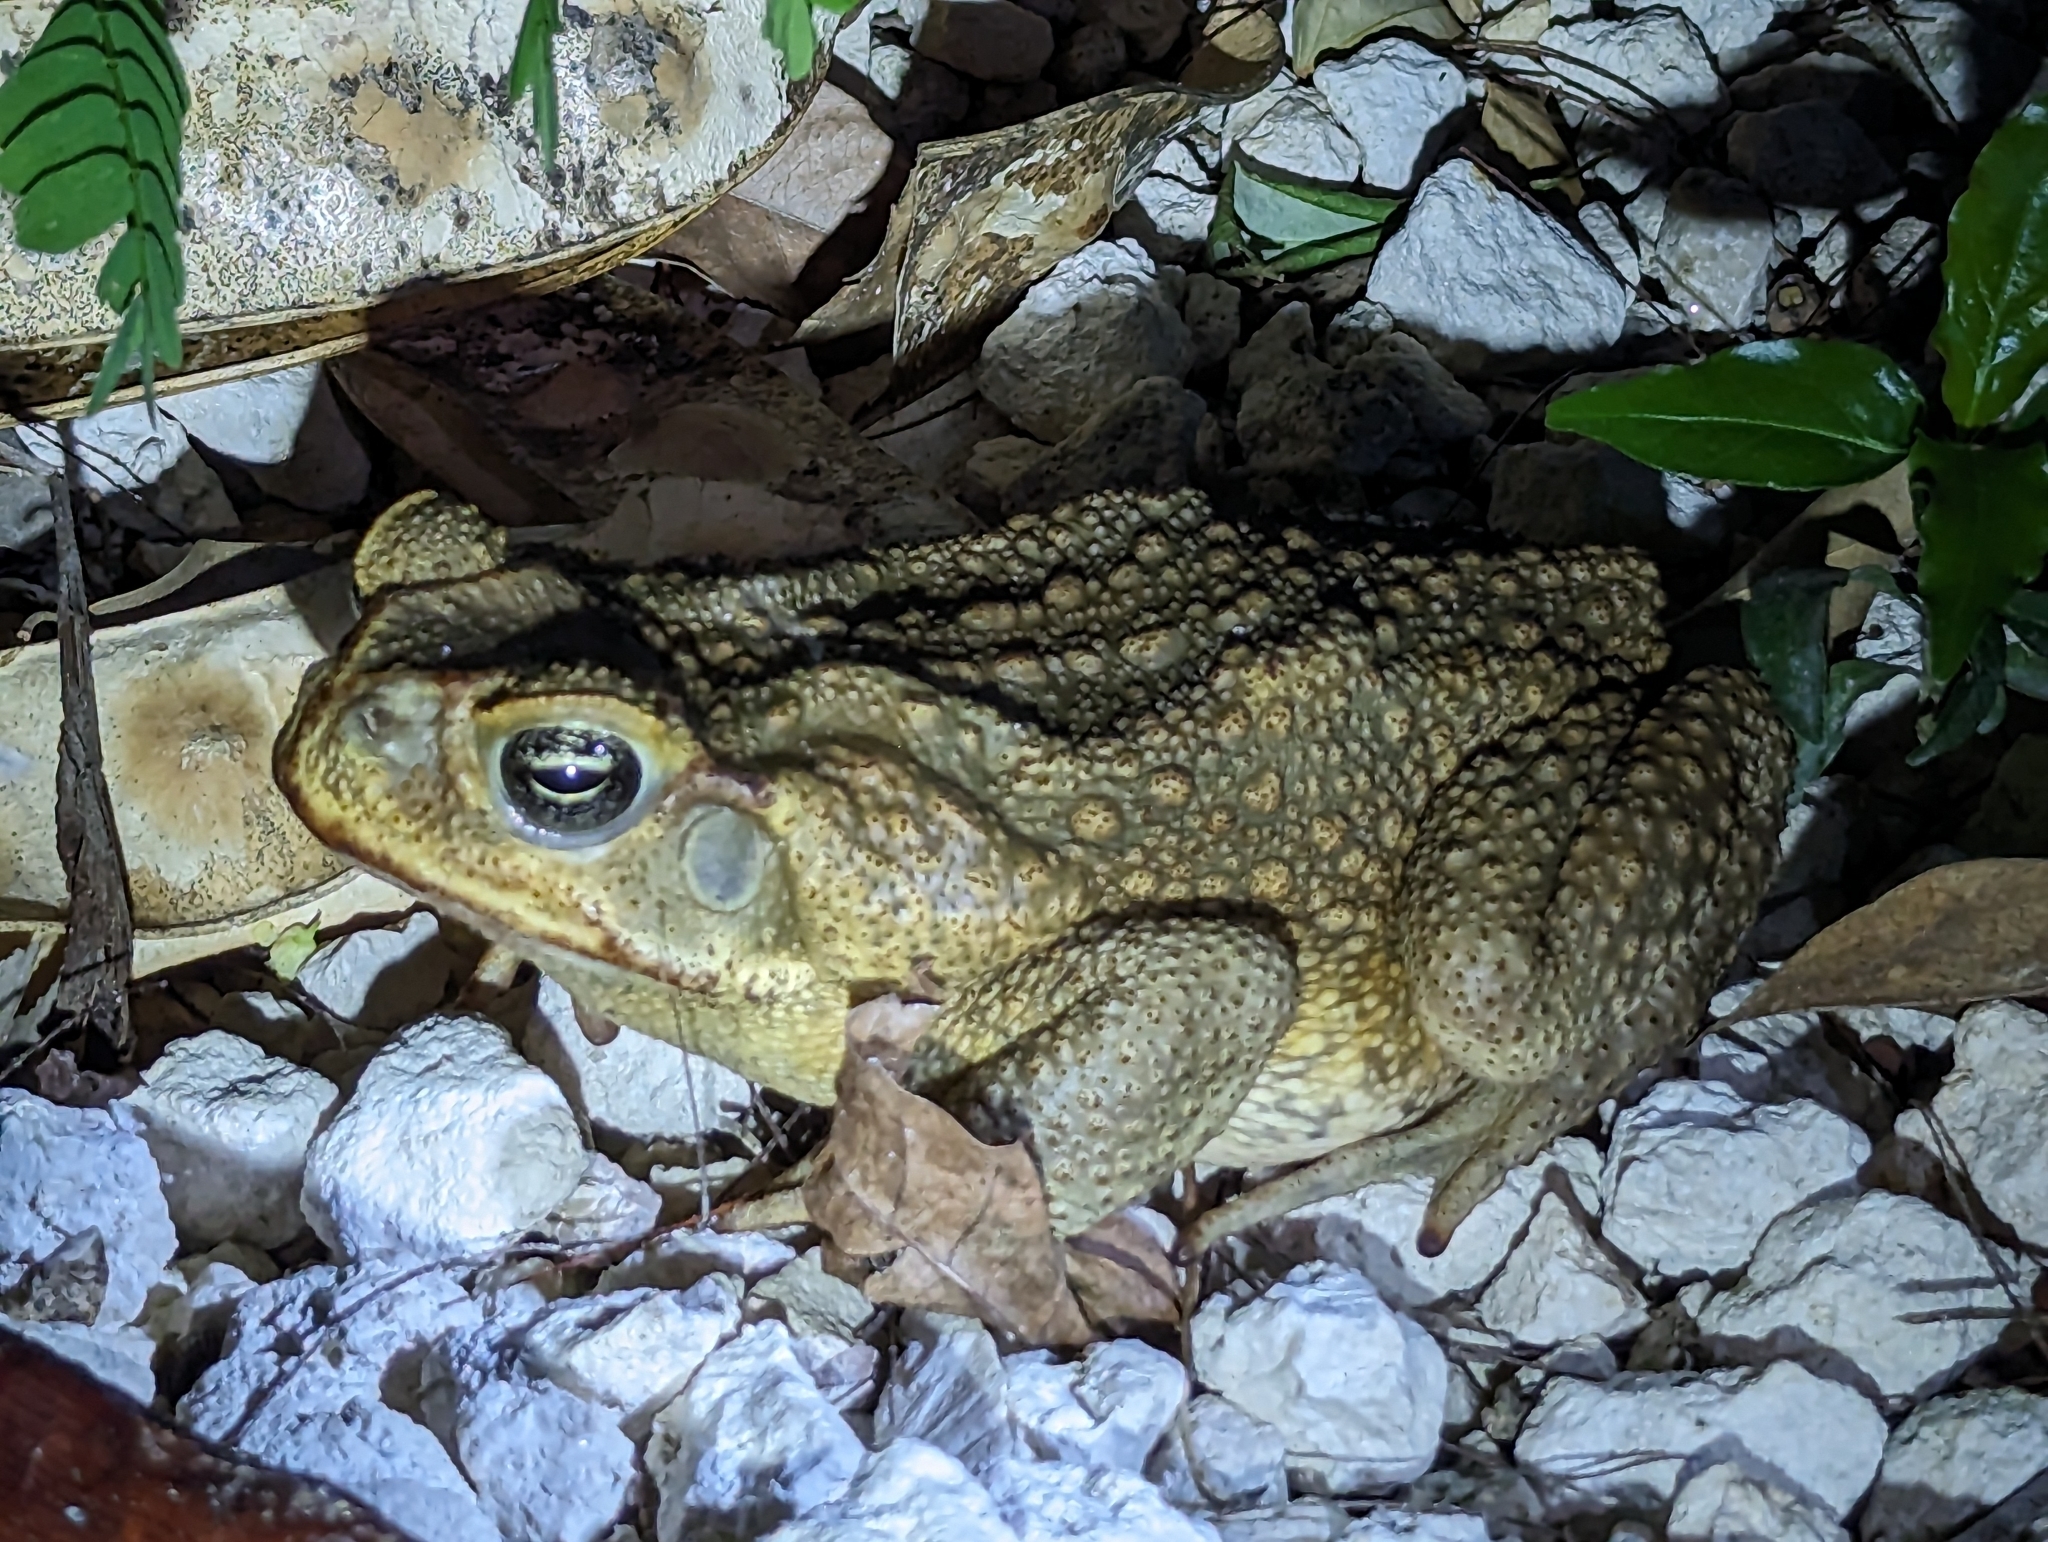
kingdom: Animalia
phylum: Chordata
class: Amphibia
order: Anura
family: Bufonidae
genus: Rhinella
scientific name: Rhinella marina
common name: Cane toad
